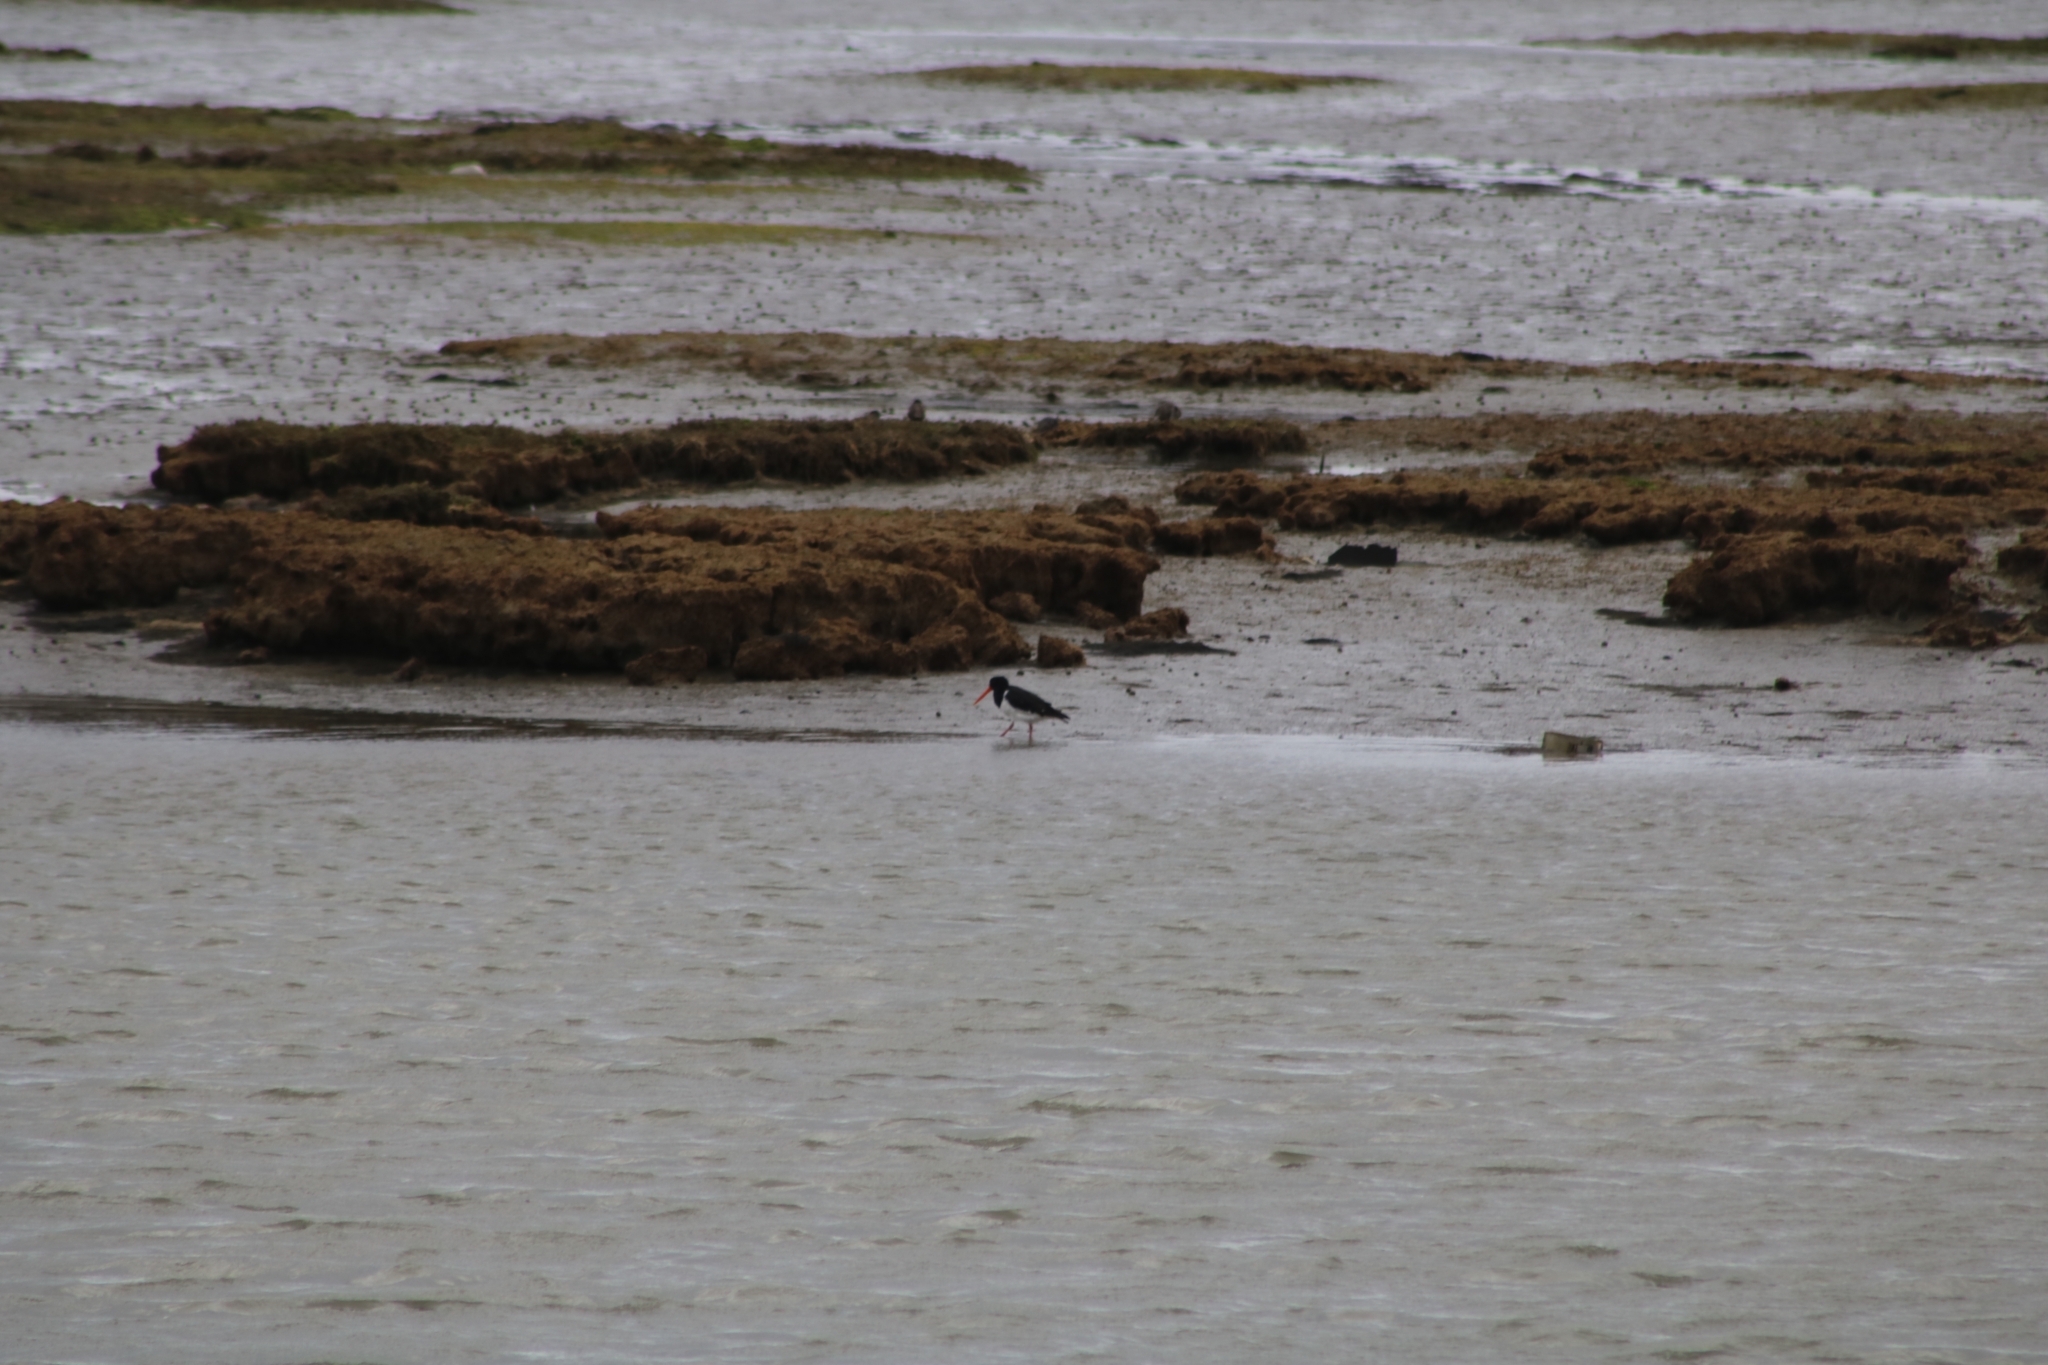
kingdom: Animalia
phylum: Chordata
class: Aves
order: Charadriiformes
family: Haematopodidae
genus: Haematopus
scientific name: Haematopus finschi
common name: South island oystercatcher
